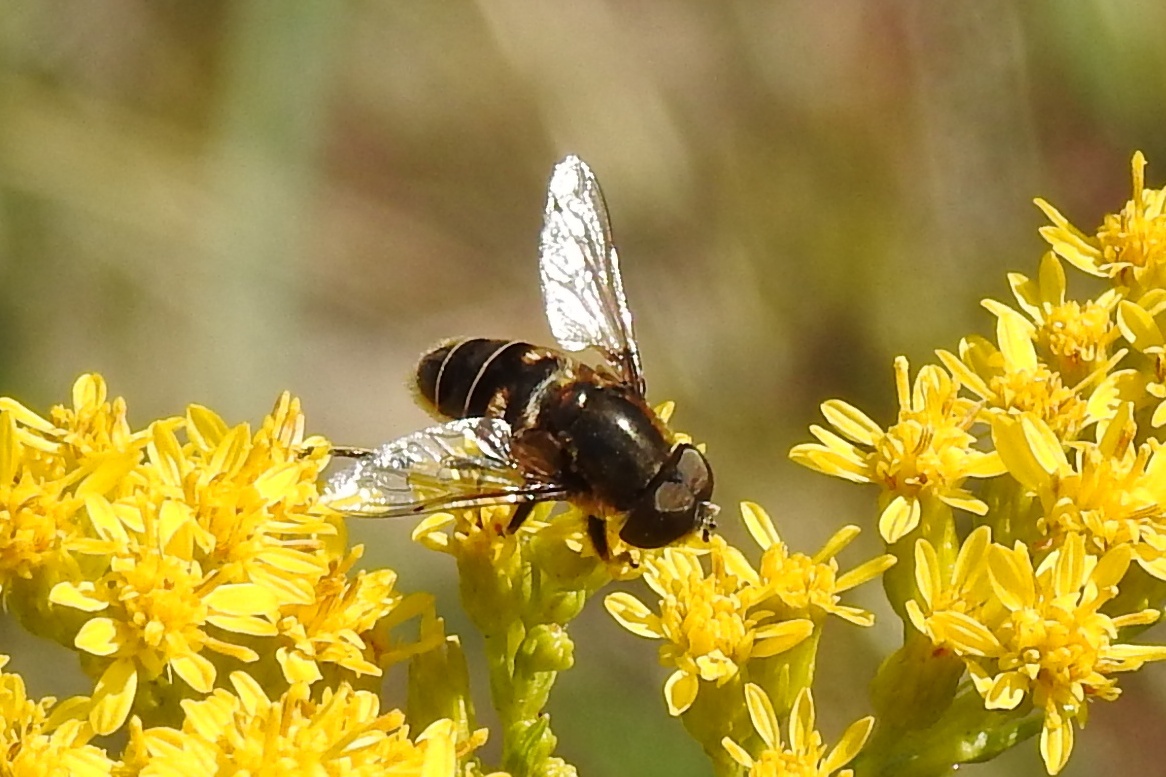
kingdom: Animalia
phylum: Arthropoda
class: Insecta
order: Diptera
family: Syrphidae
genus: Eristalis
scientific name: Eristalis dimidiata
